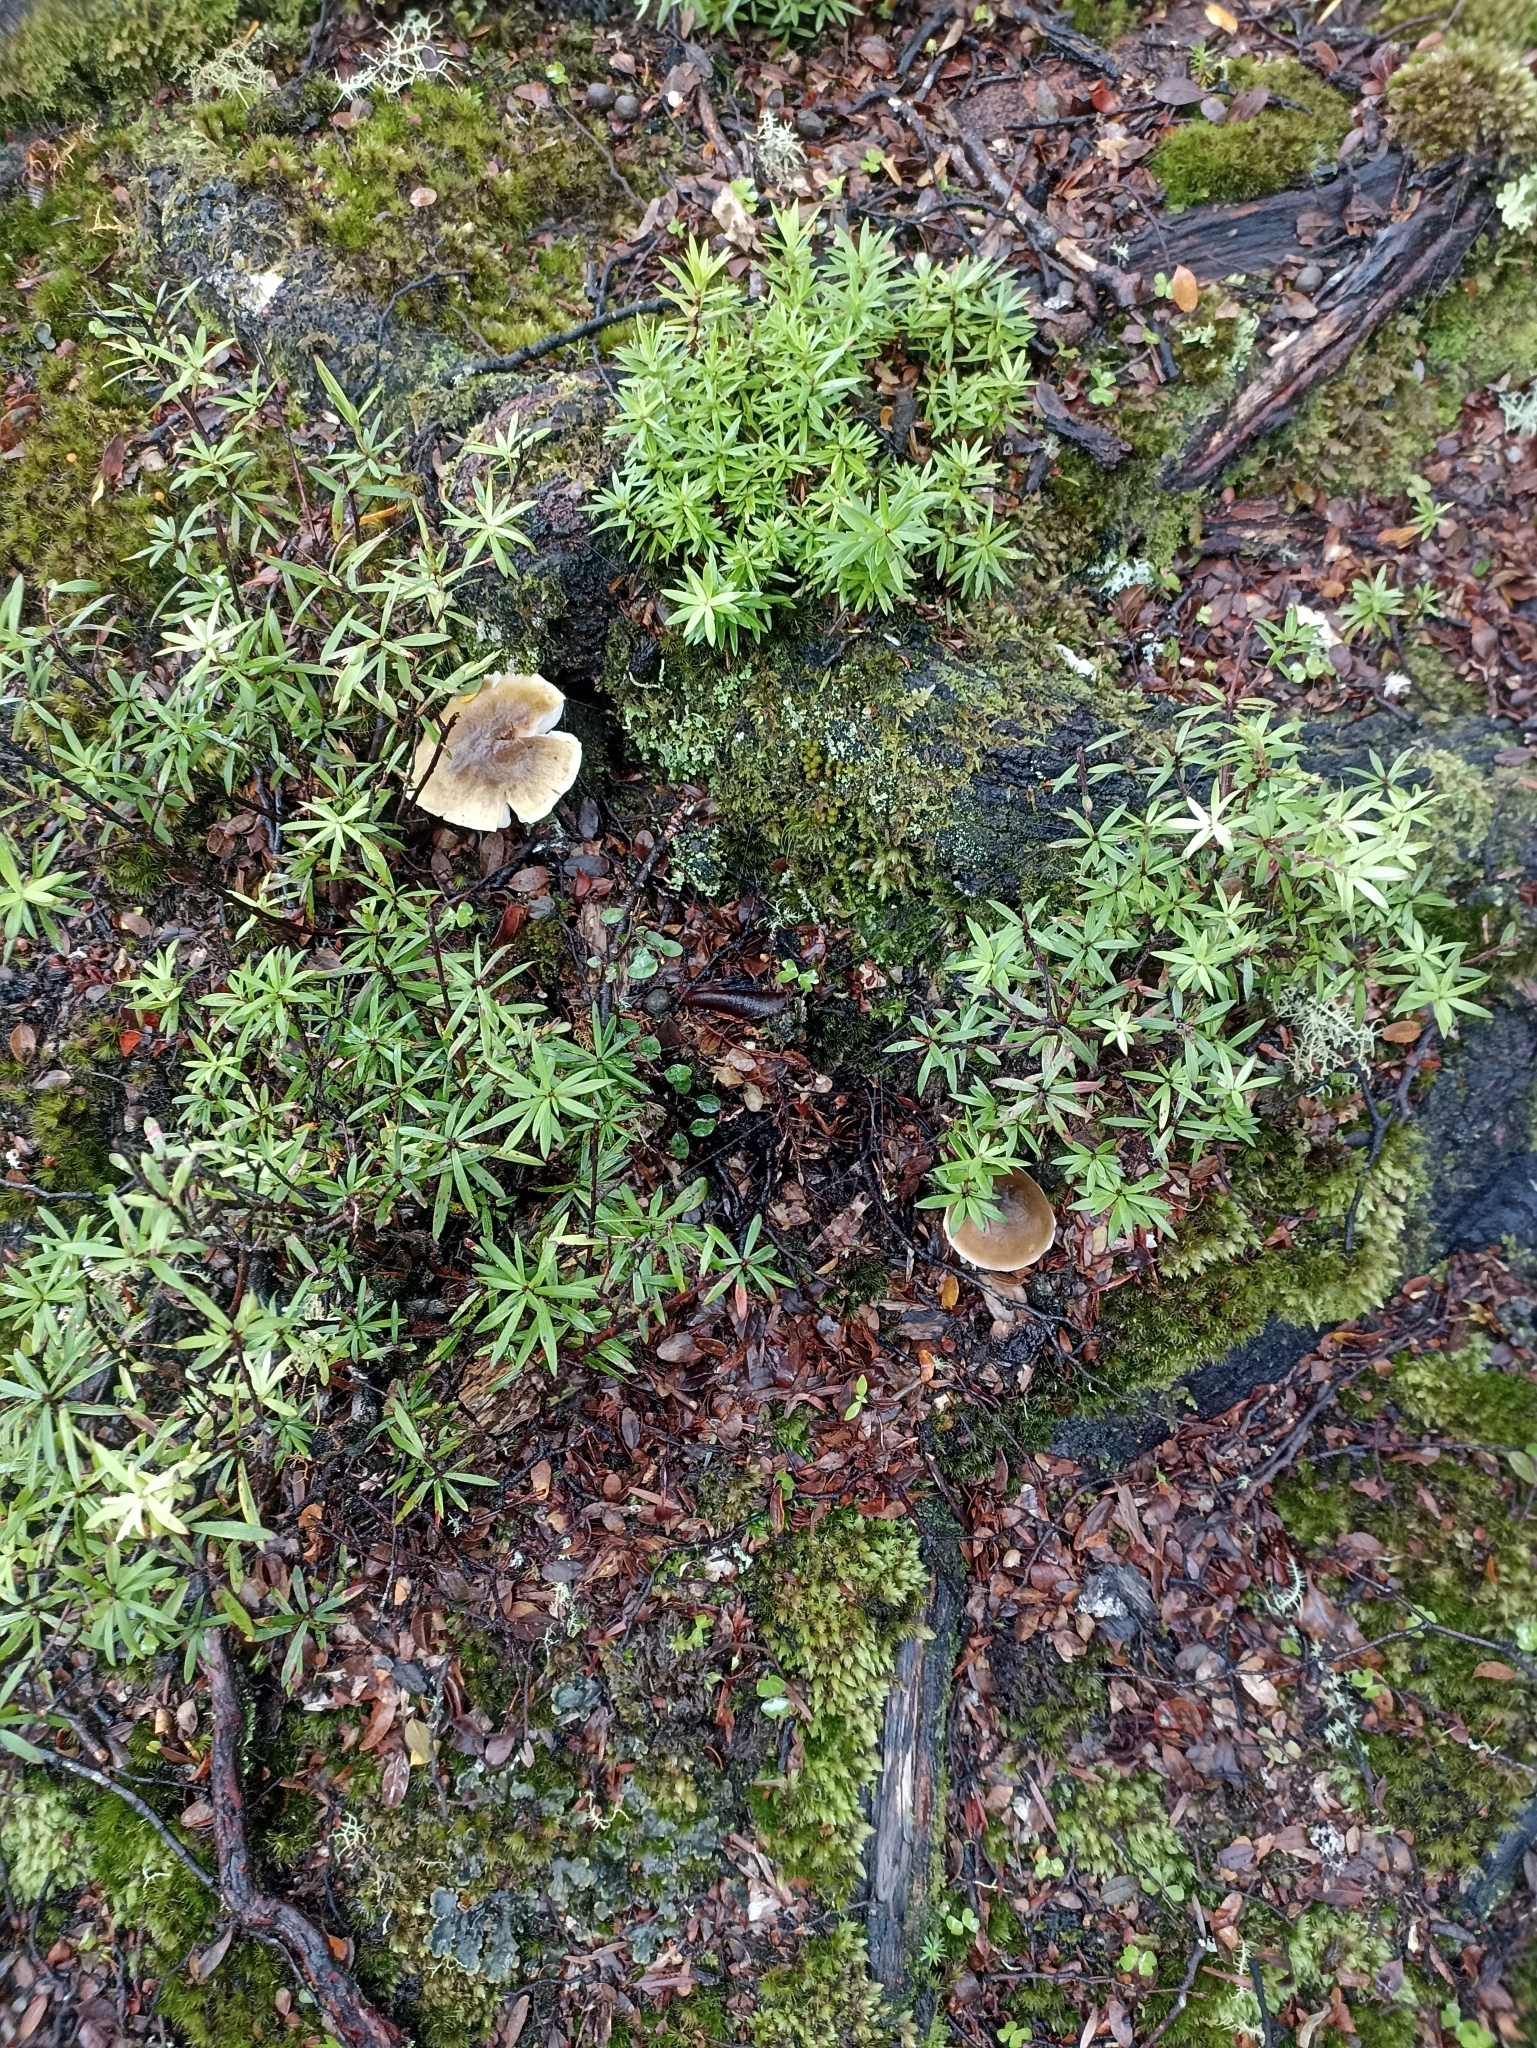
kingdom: Fungi
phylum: Basidiomycota
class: Agaricomycetes
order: Agaricales
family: Tricholomataceae
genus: Tricholoma
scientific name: Tricholoma viridiolivaceum
